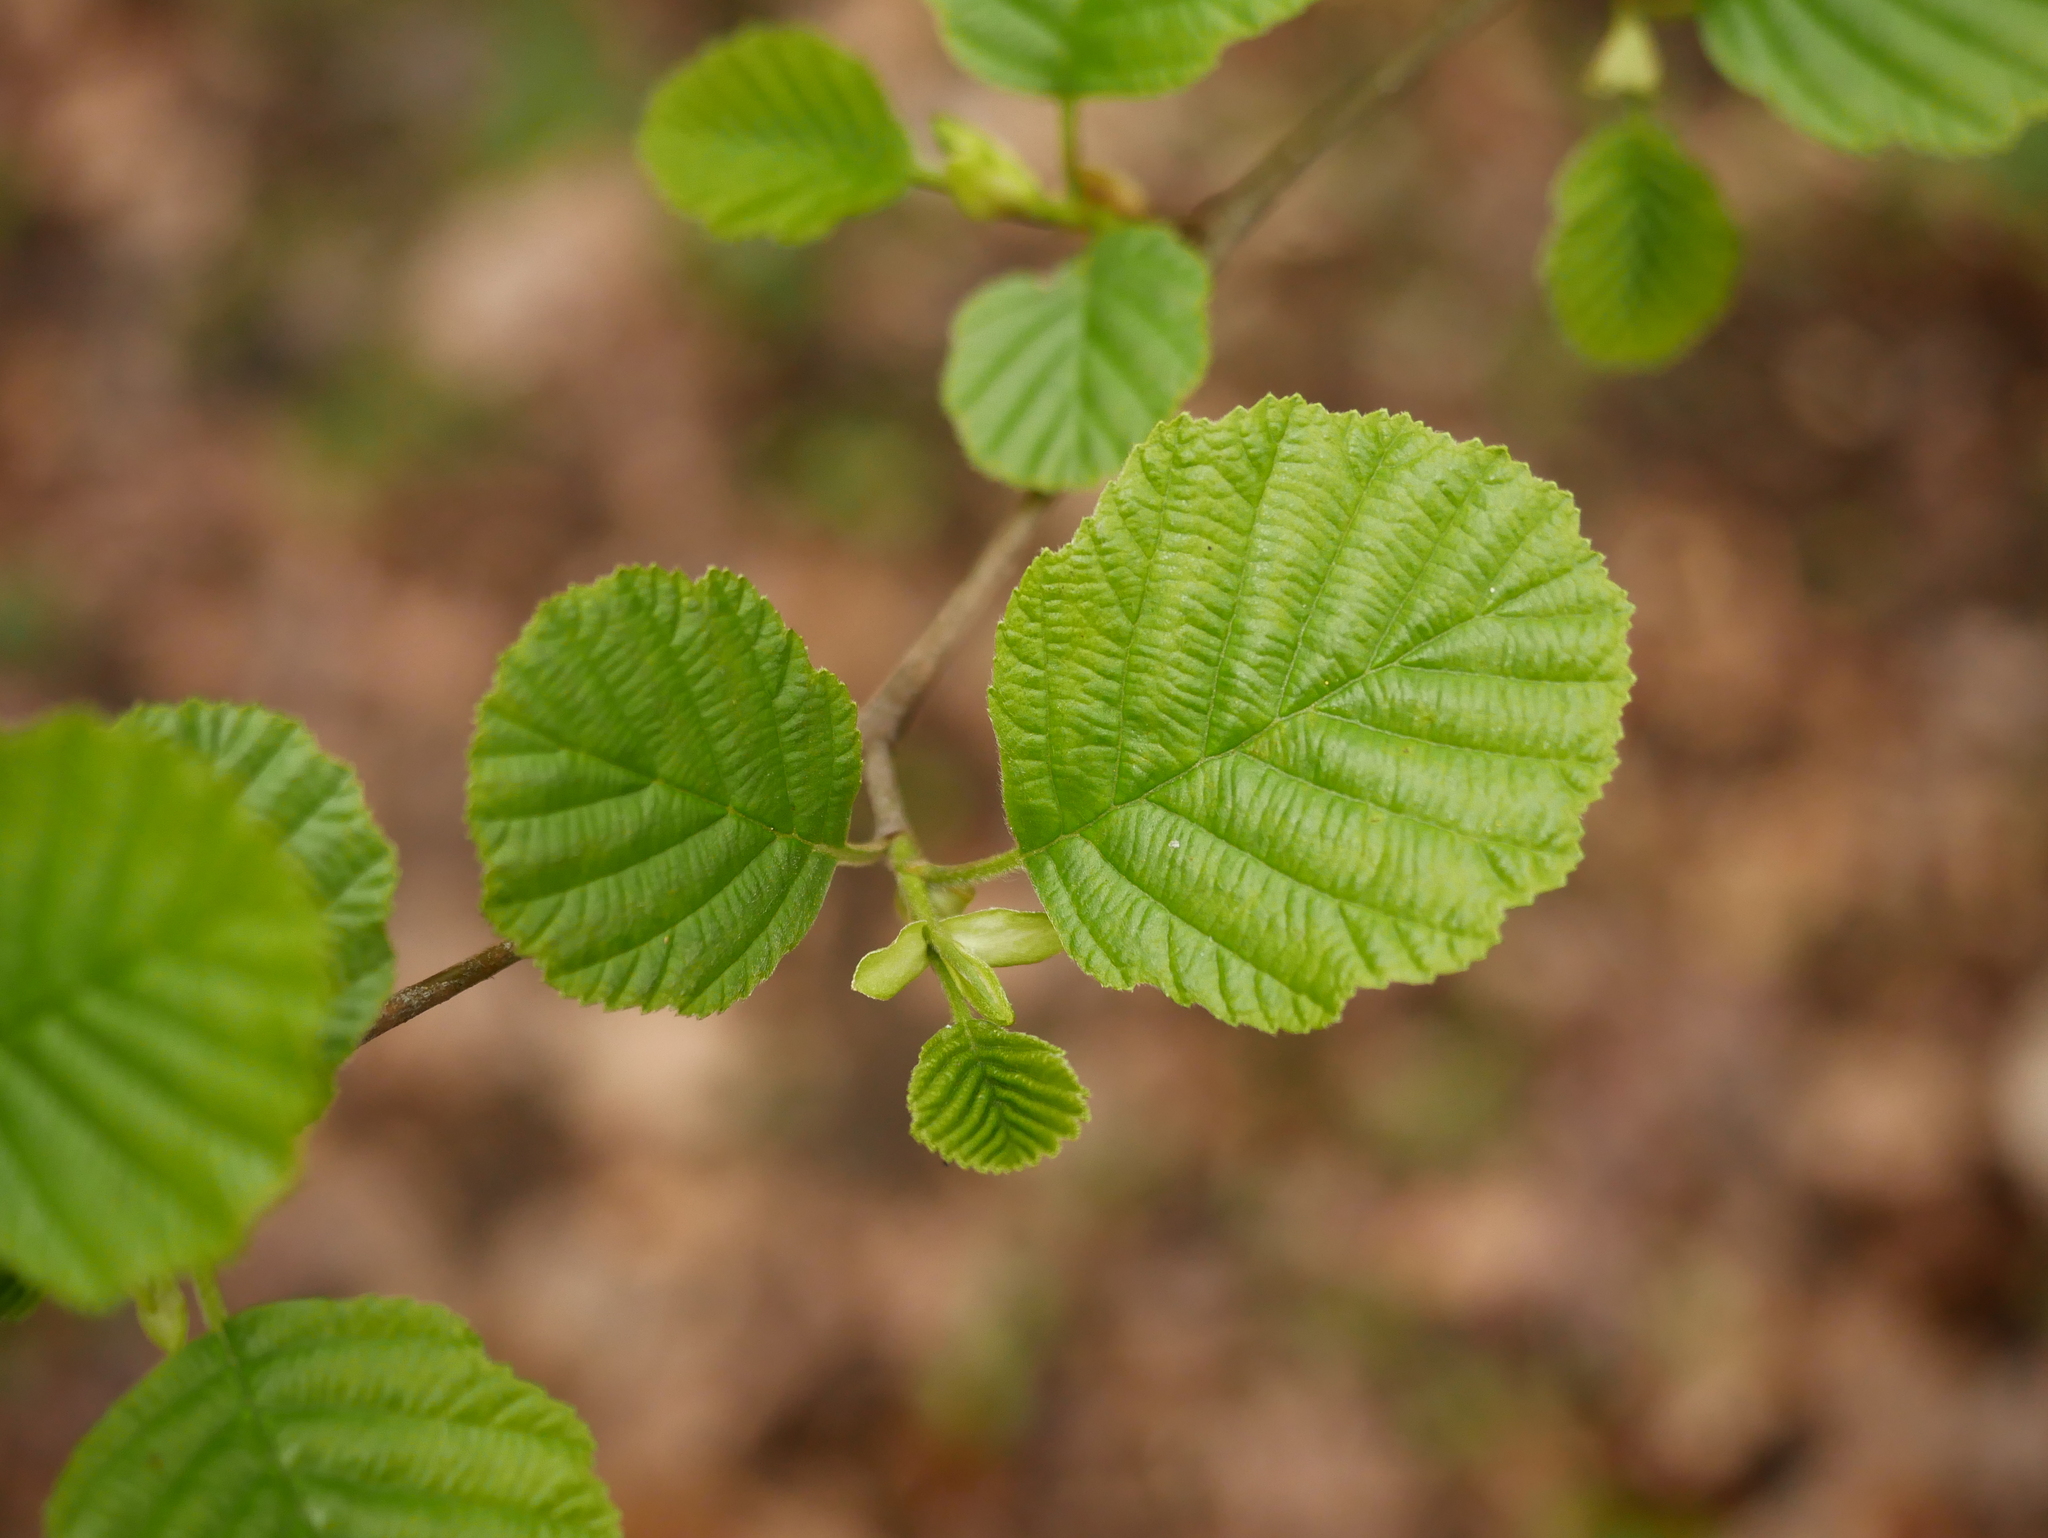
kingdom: Plantae
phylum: Tracheophyta
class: Magnoliopsida
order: Fagales
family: Betulaceae
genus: Alnus
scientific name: Alnus glutinosa
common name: Black alder
